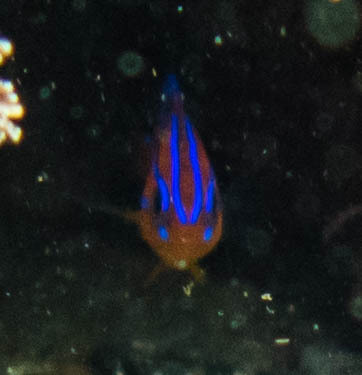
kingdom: Animalia
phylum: Chordata
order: Perciformes
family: Pomacentridae
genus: Mecaenichthys
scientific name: Mecaenichthys immaculatus
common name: Immaculate damsel
